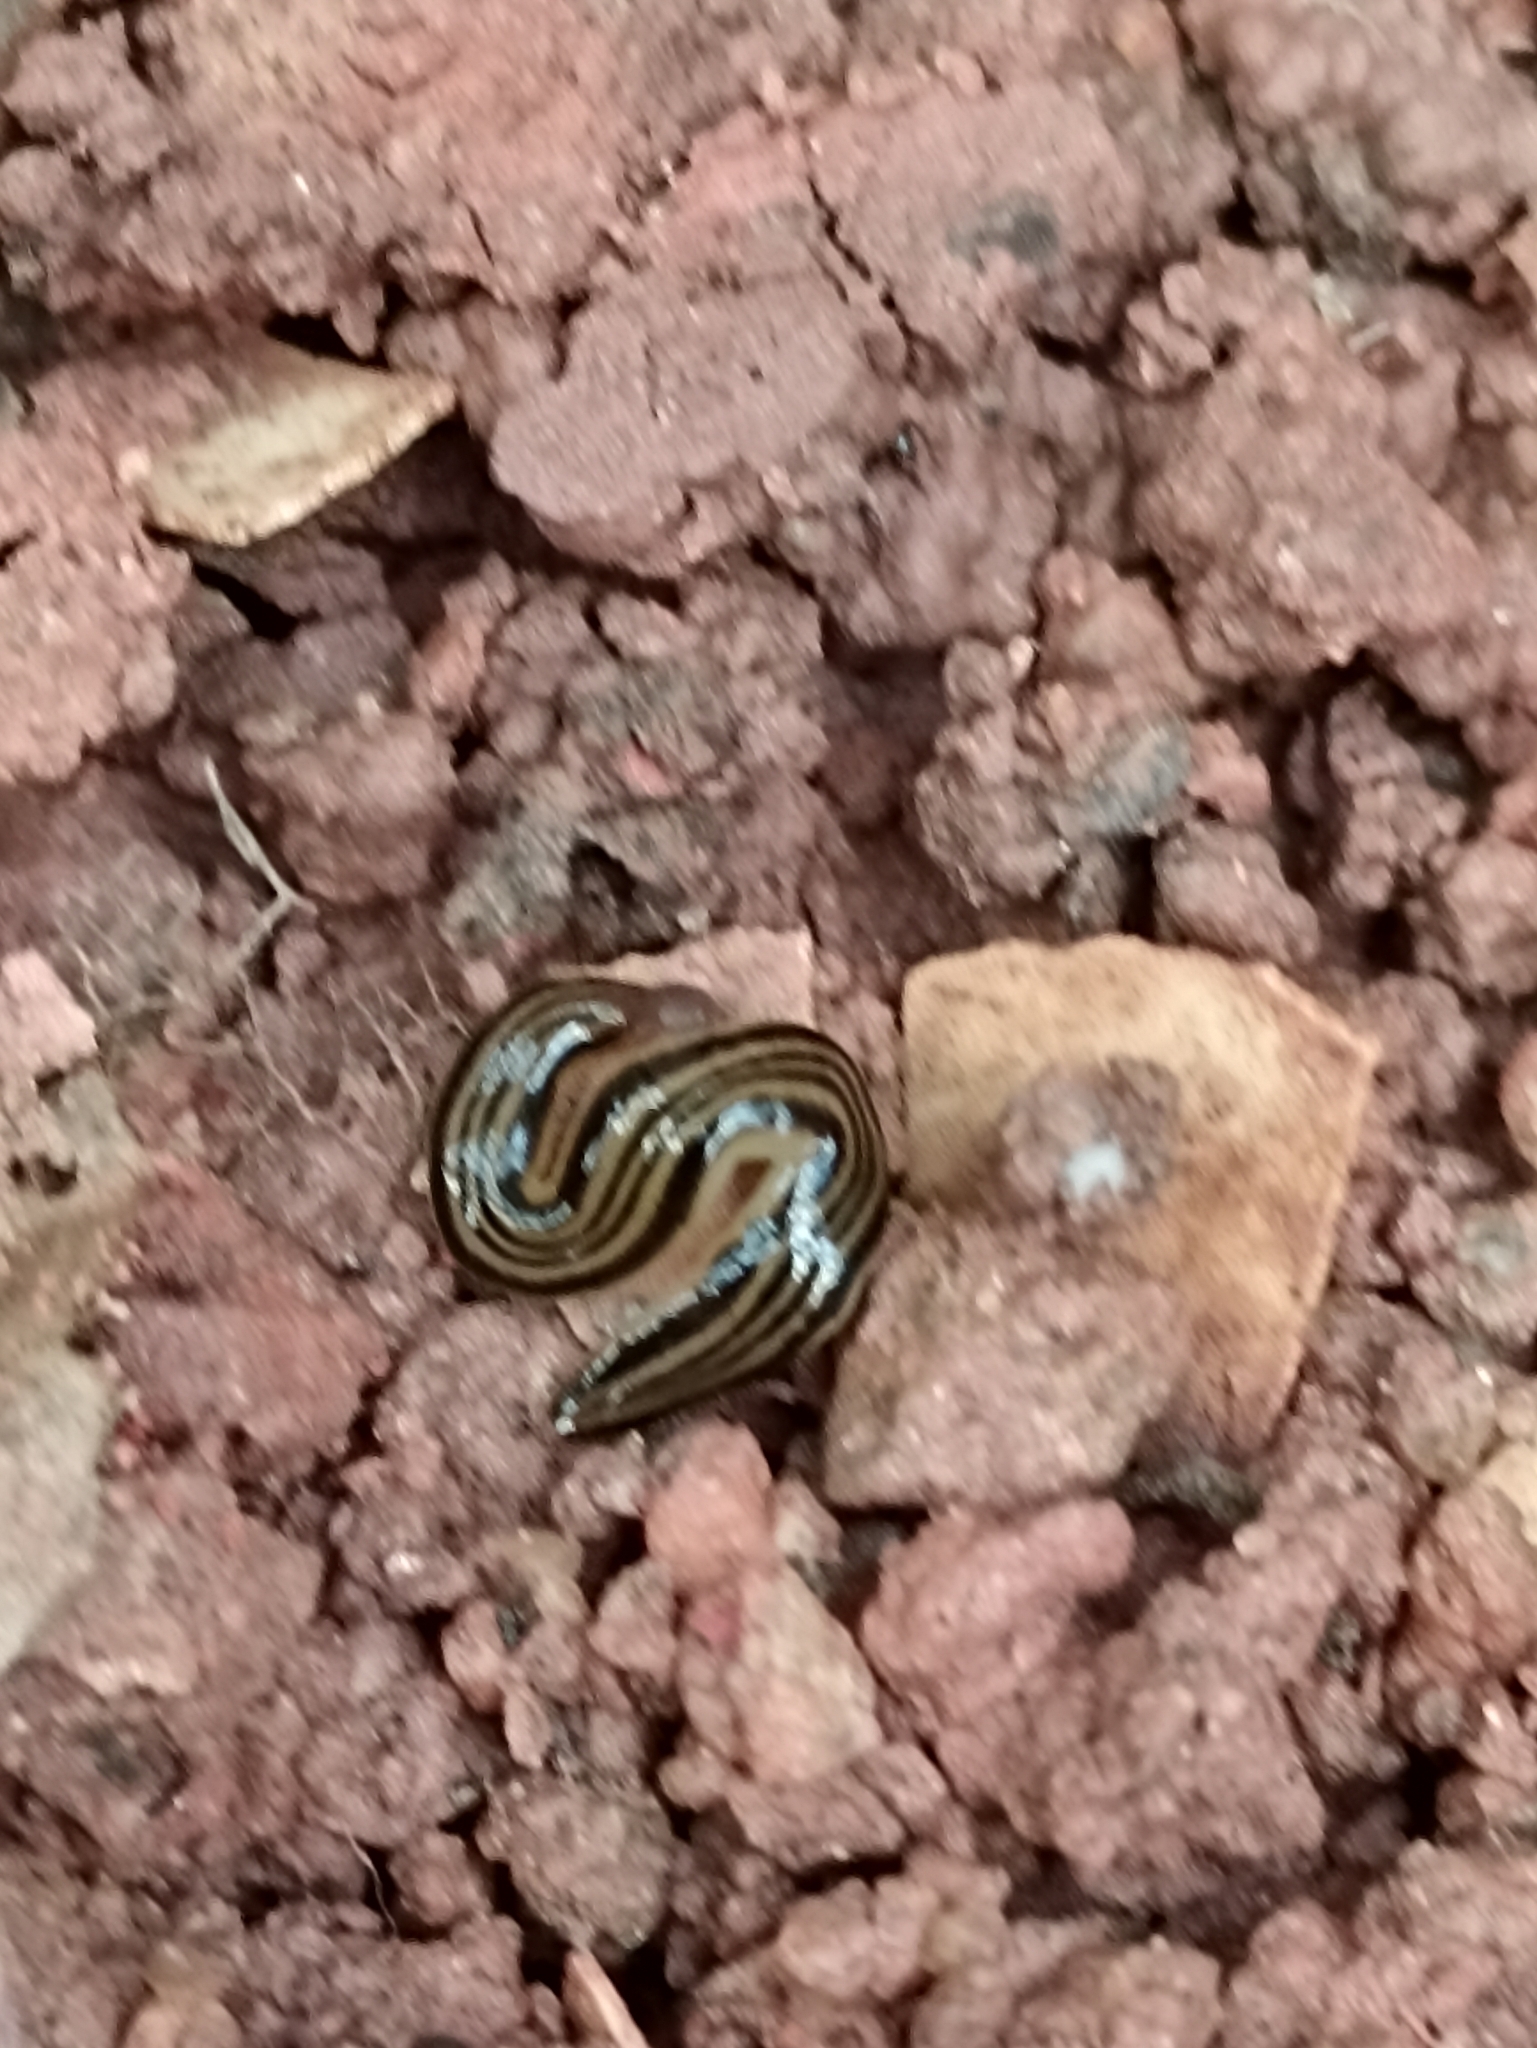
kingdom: Animalia
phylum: Platyhelminthes
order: Tricladida
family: Geoplanidae
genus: Issoca
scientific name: Issoca rezendei
